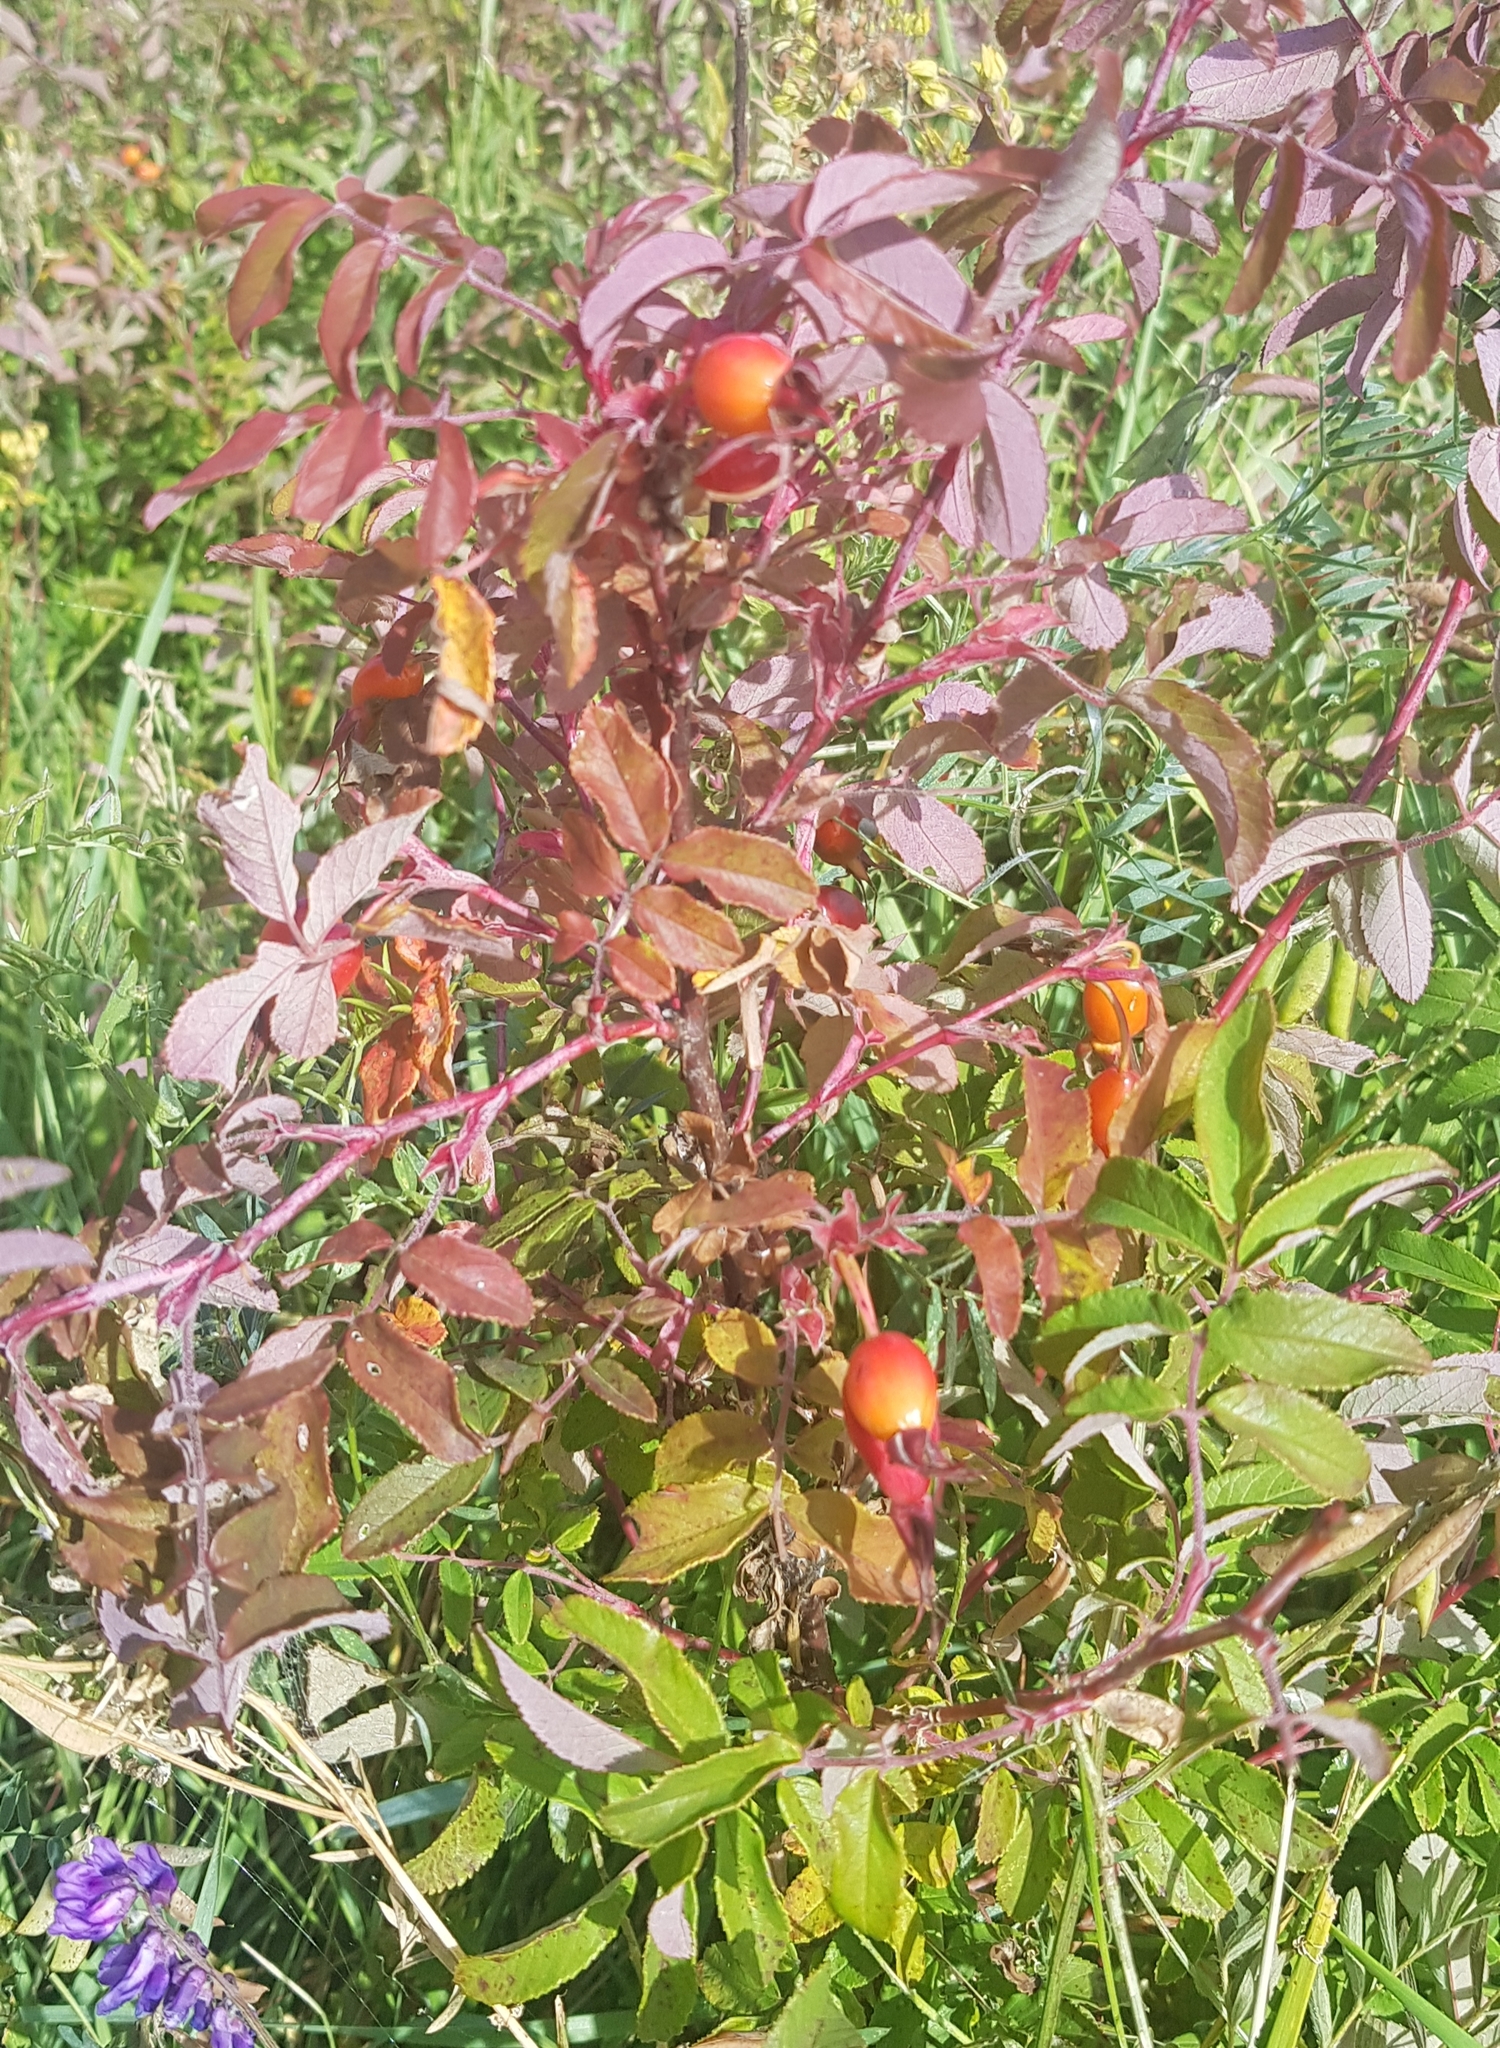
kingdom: Plantae
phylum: Tracheophyta
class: Magnoliopsida
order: Rosales
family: Rosaceae
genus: Rosa
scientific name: Rosa davurica
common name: Amur rose
